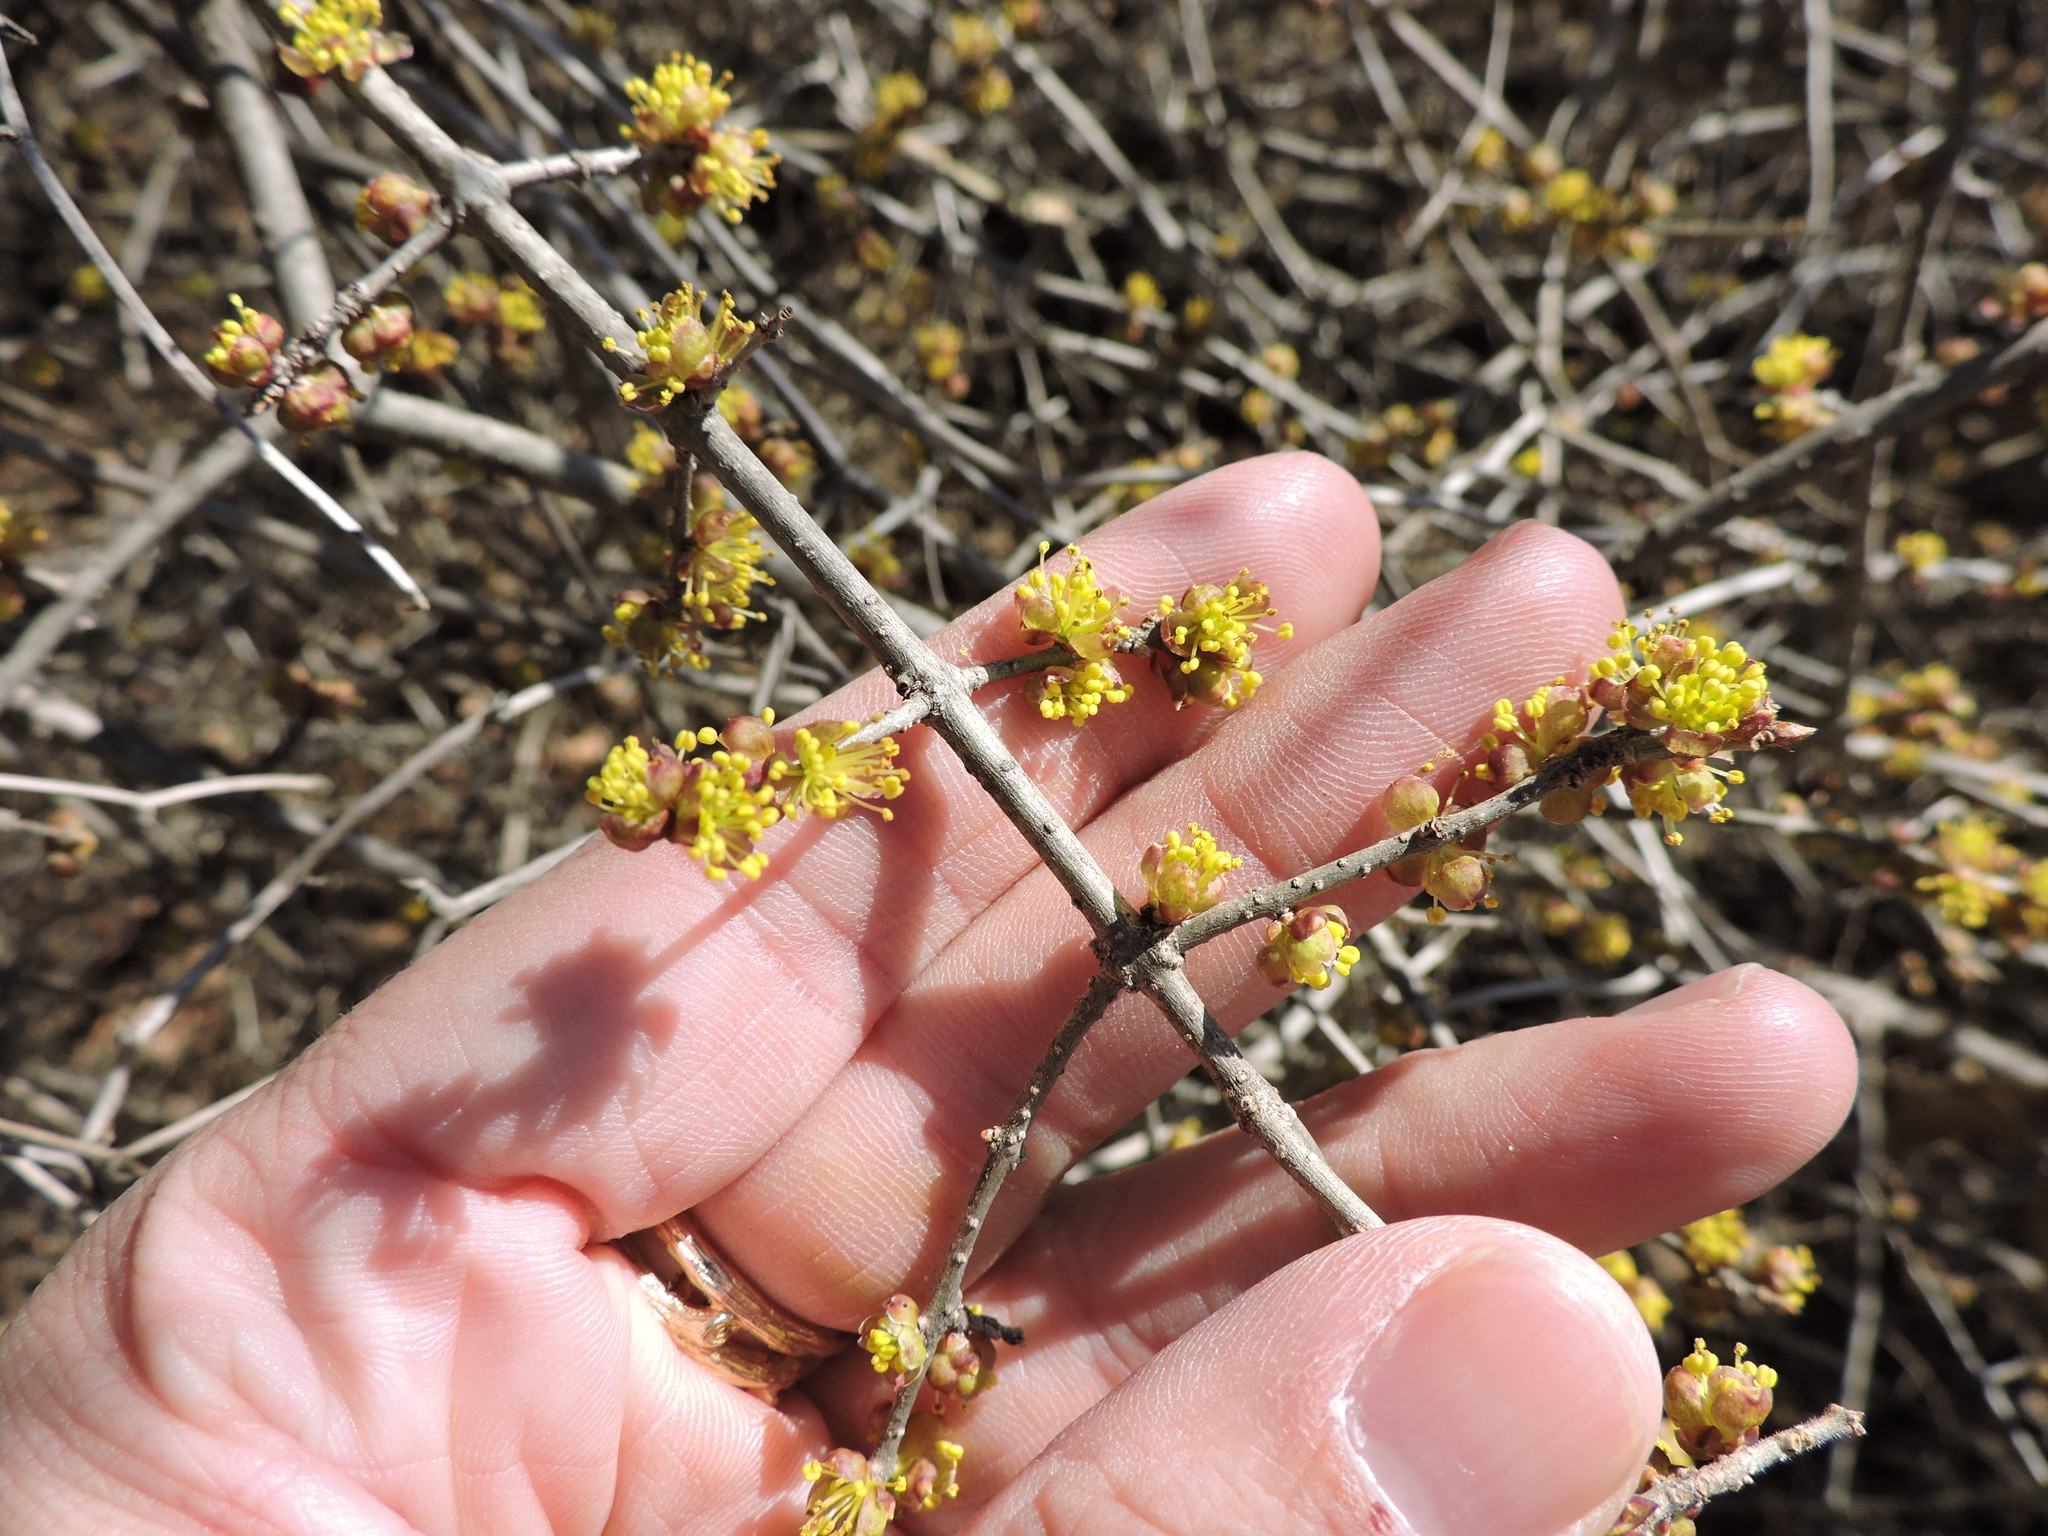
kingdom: Plantae
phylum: Tracheophyta
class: Magnoliopsida
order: Lamiales
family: Oleaceae
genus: Forestiera
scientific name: Forestiera pubescens
